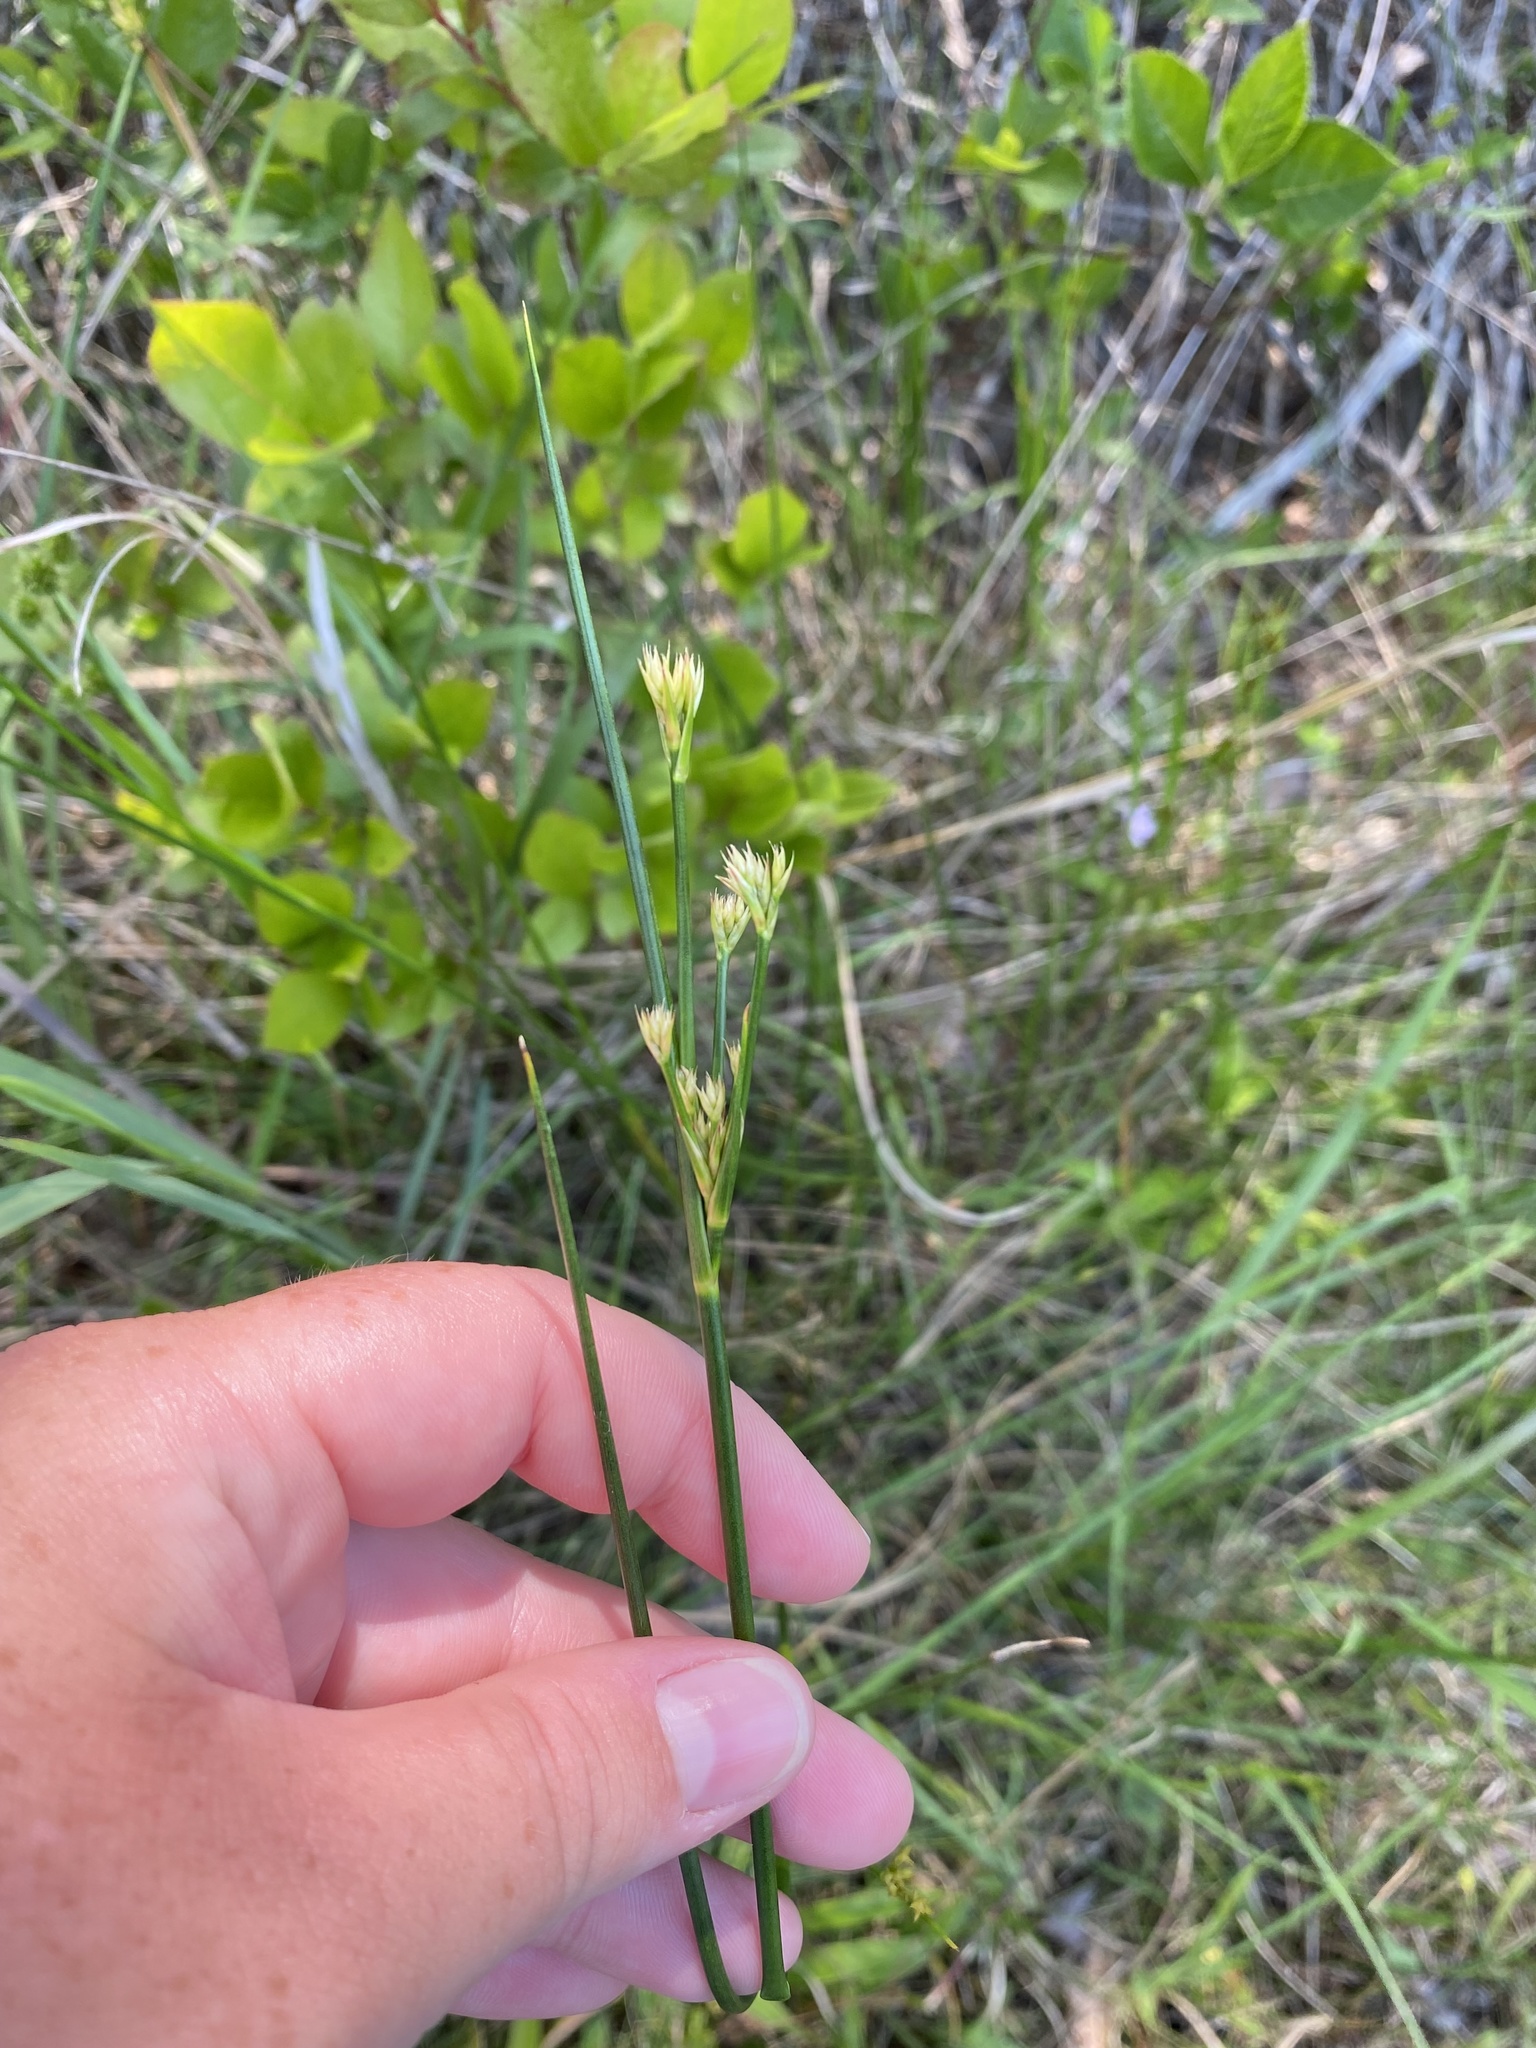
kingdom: Plantae
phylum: Tracheophyta
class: Liliopsida
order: Poales
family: Cyperaceae
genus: Rhynchospora
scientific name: Rhynchospora alba
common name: White beak-sedge
